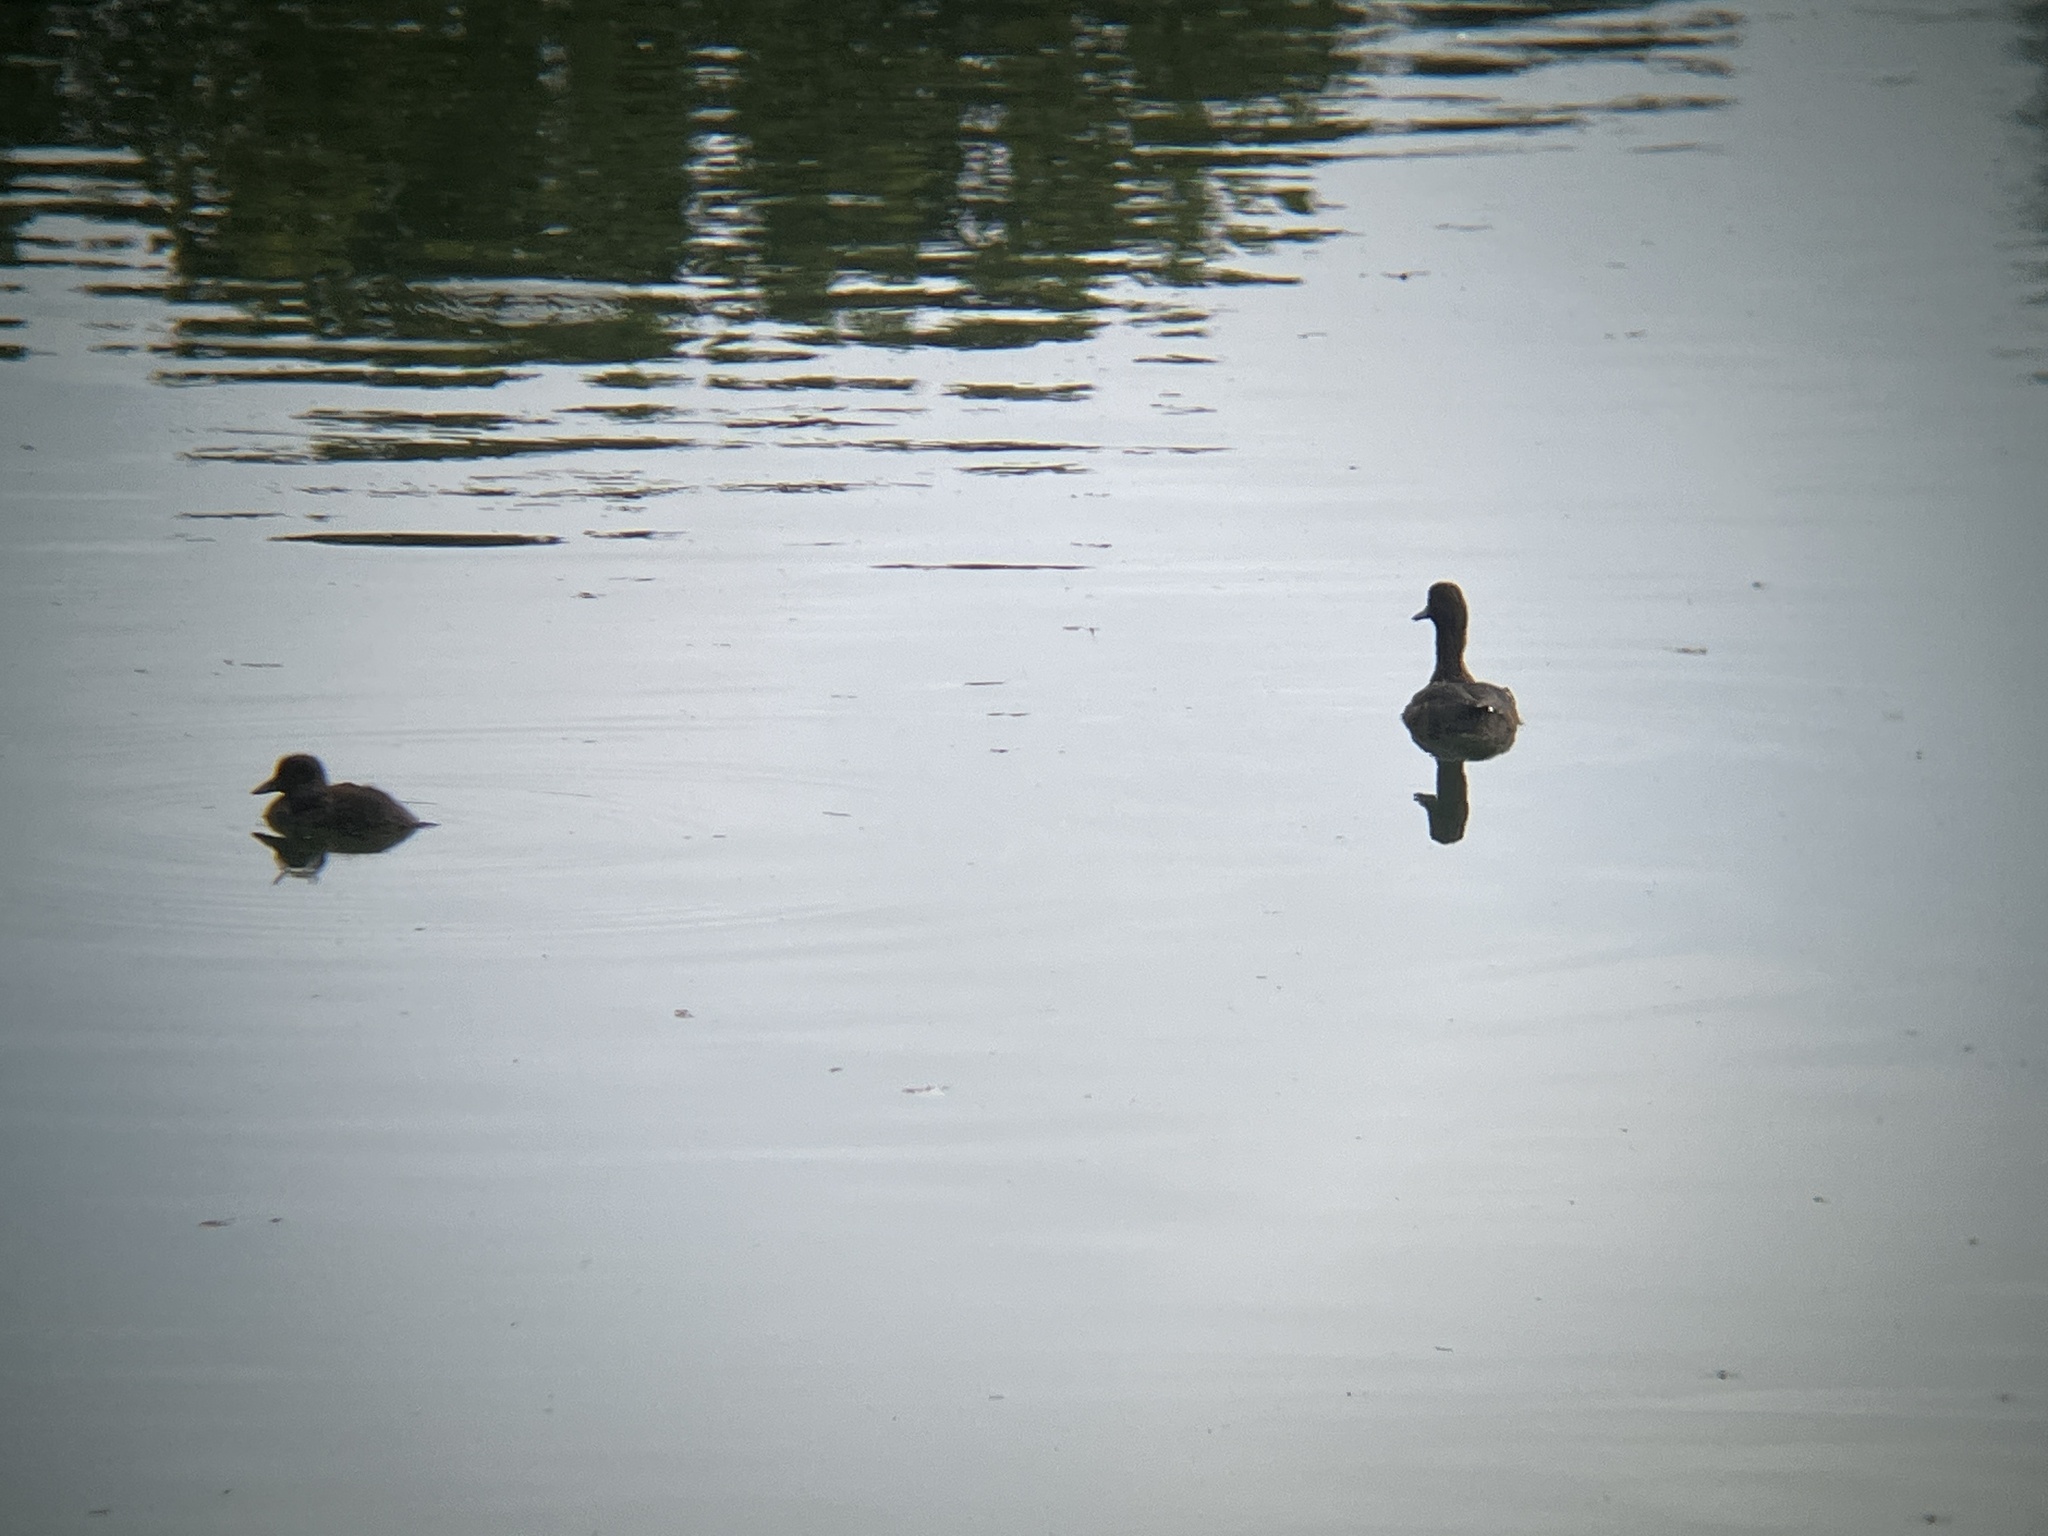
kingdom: Animalia
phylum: Chordata
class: Aves
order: Anseriformes
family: Anatidae
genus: Aythya
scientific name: Aythya fuligula
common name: Tufted duck
